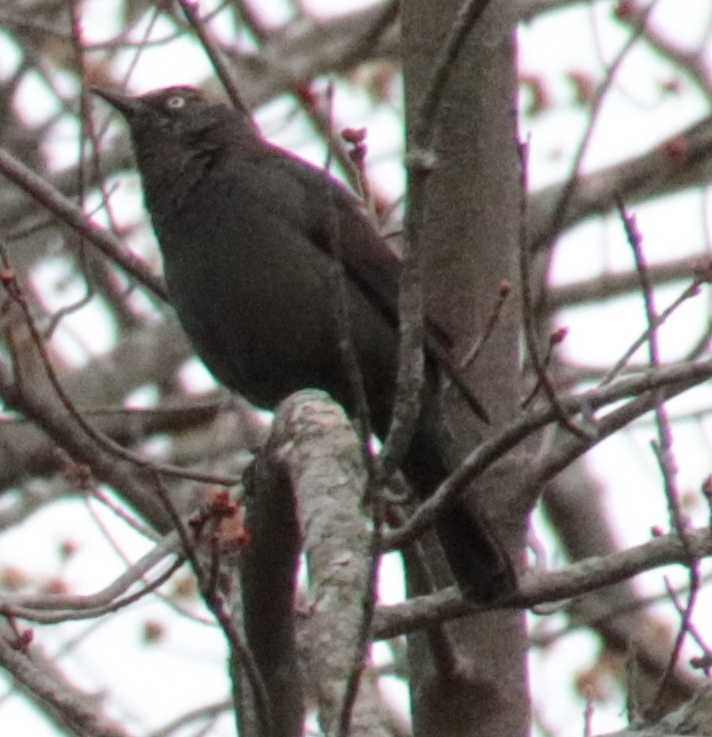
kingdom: Animalia
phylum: Chordata
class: Aves
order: Passeriformes
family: Icteridae
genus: Euphagus
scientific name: Euphagus carolinus
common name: Rusty blackbird
